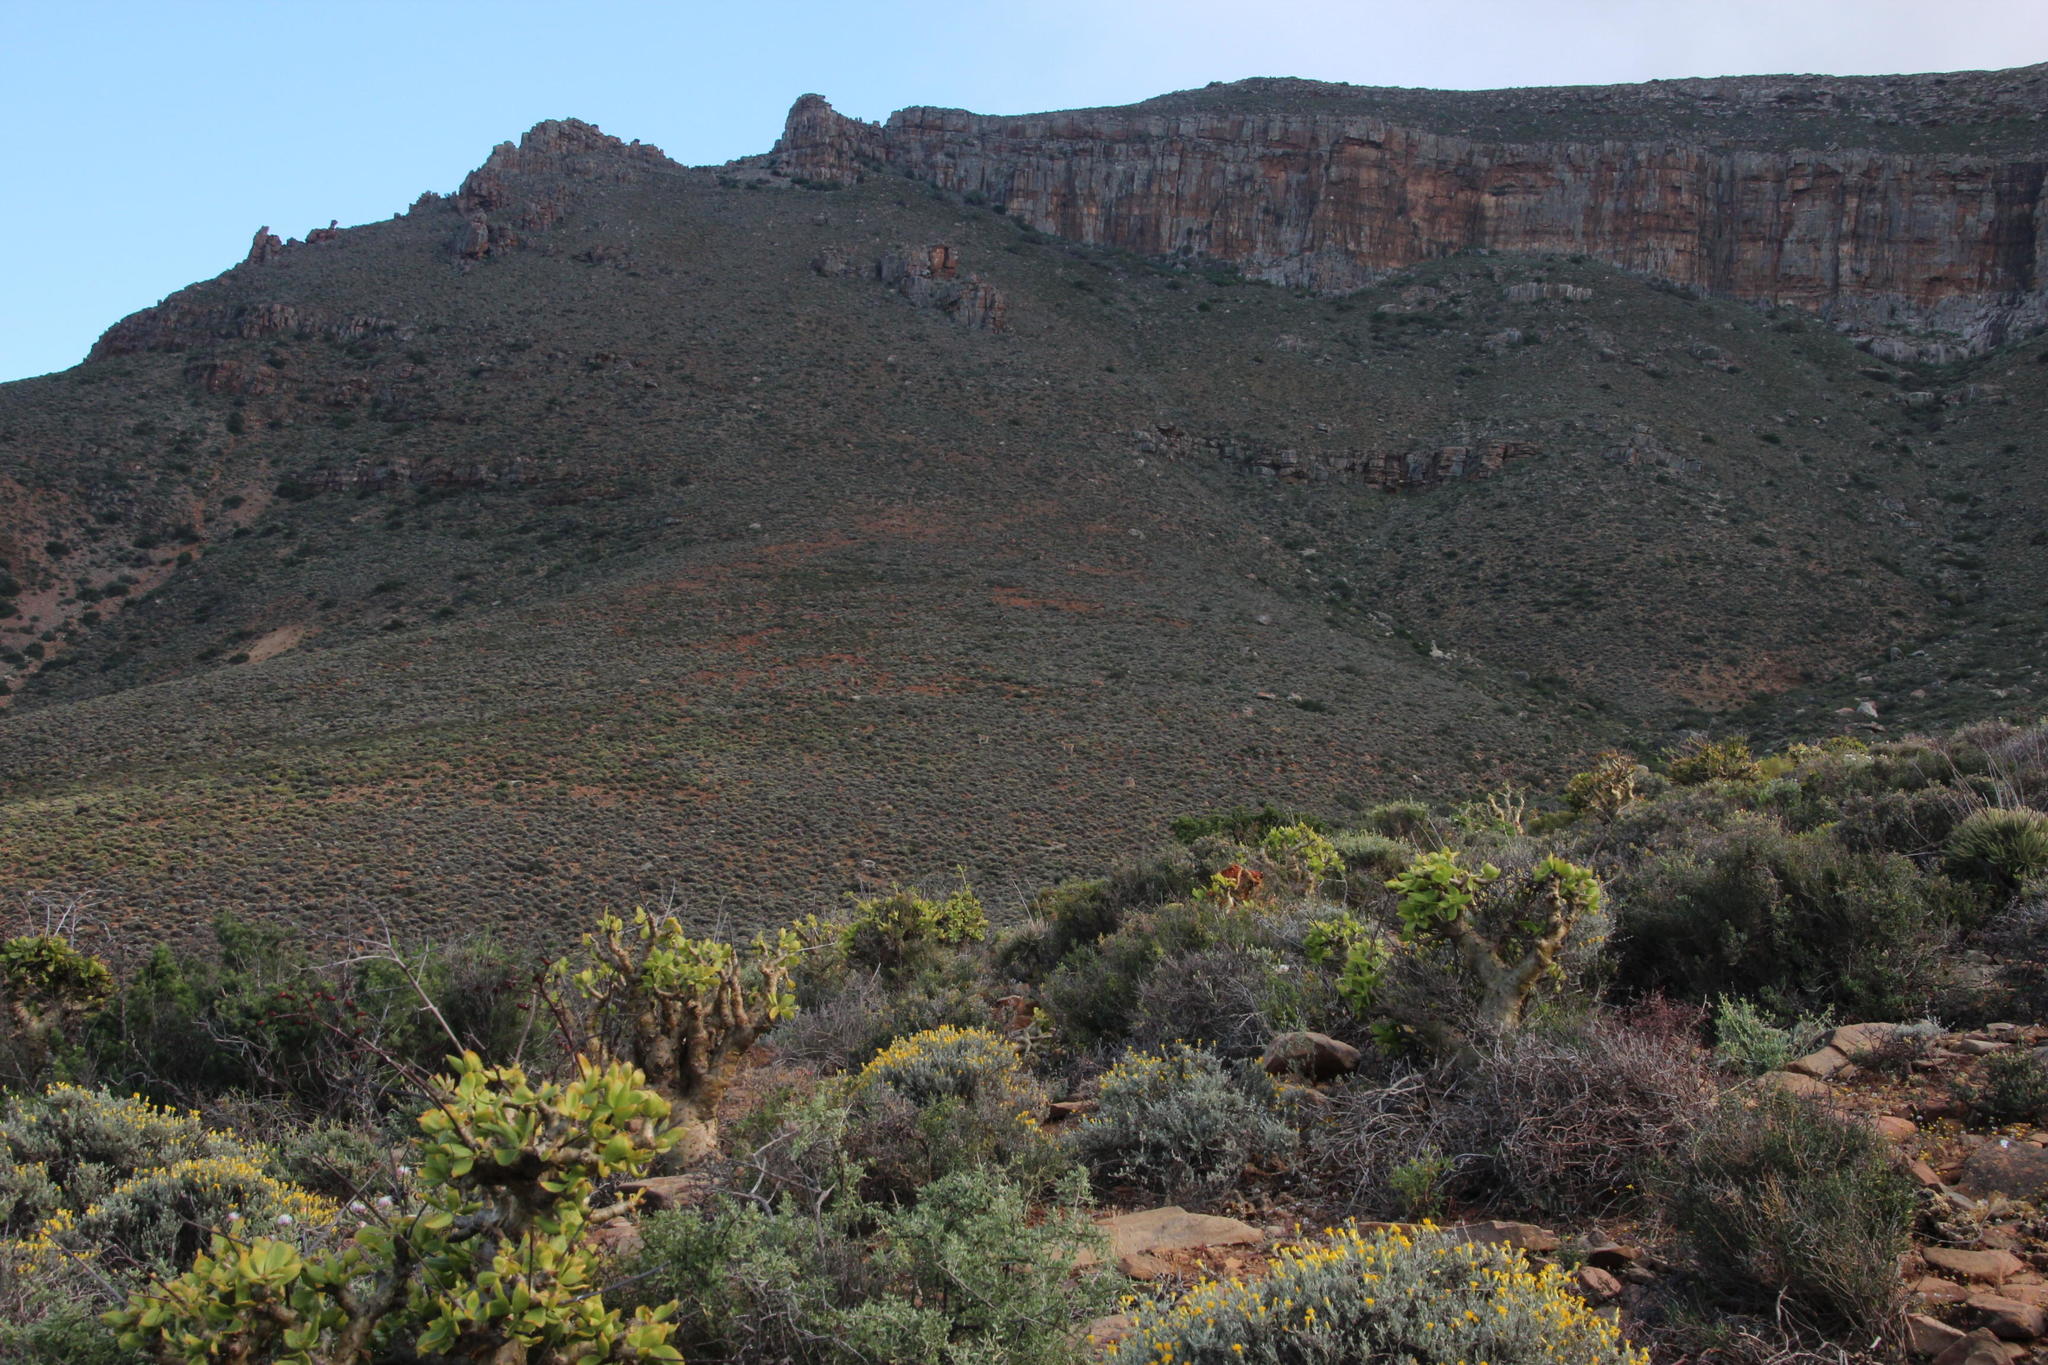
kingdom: Plantae
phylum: Tracheophyta
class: Magnoliopsida
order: Saxifragales
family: Crassulaceae
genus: Tylecodon
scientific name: Tylecodon paniculatus
